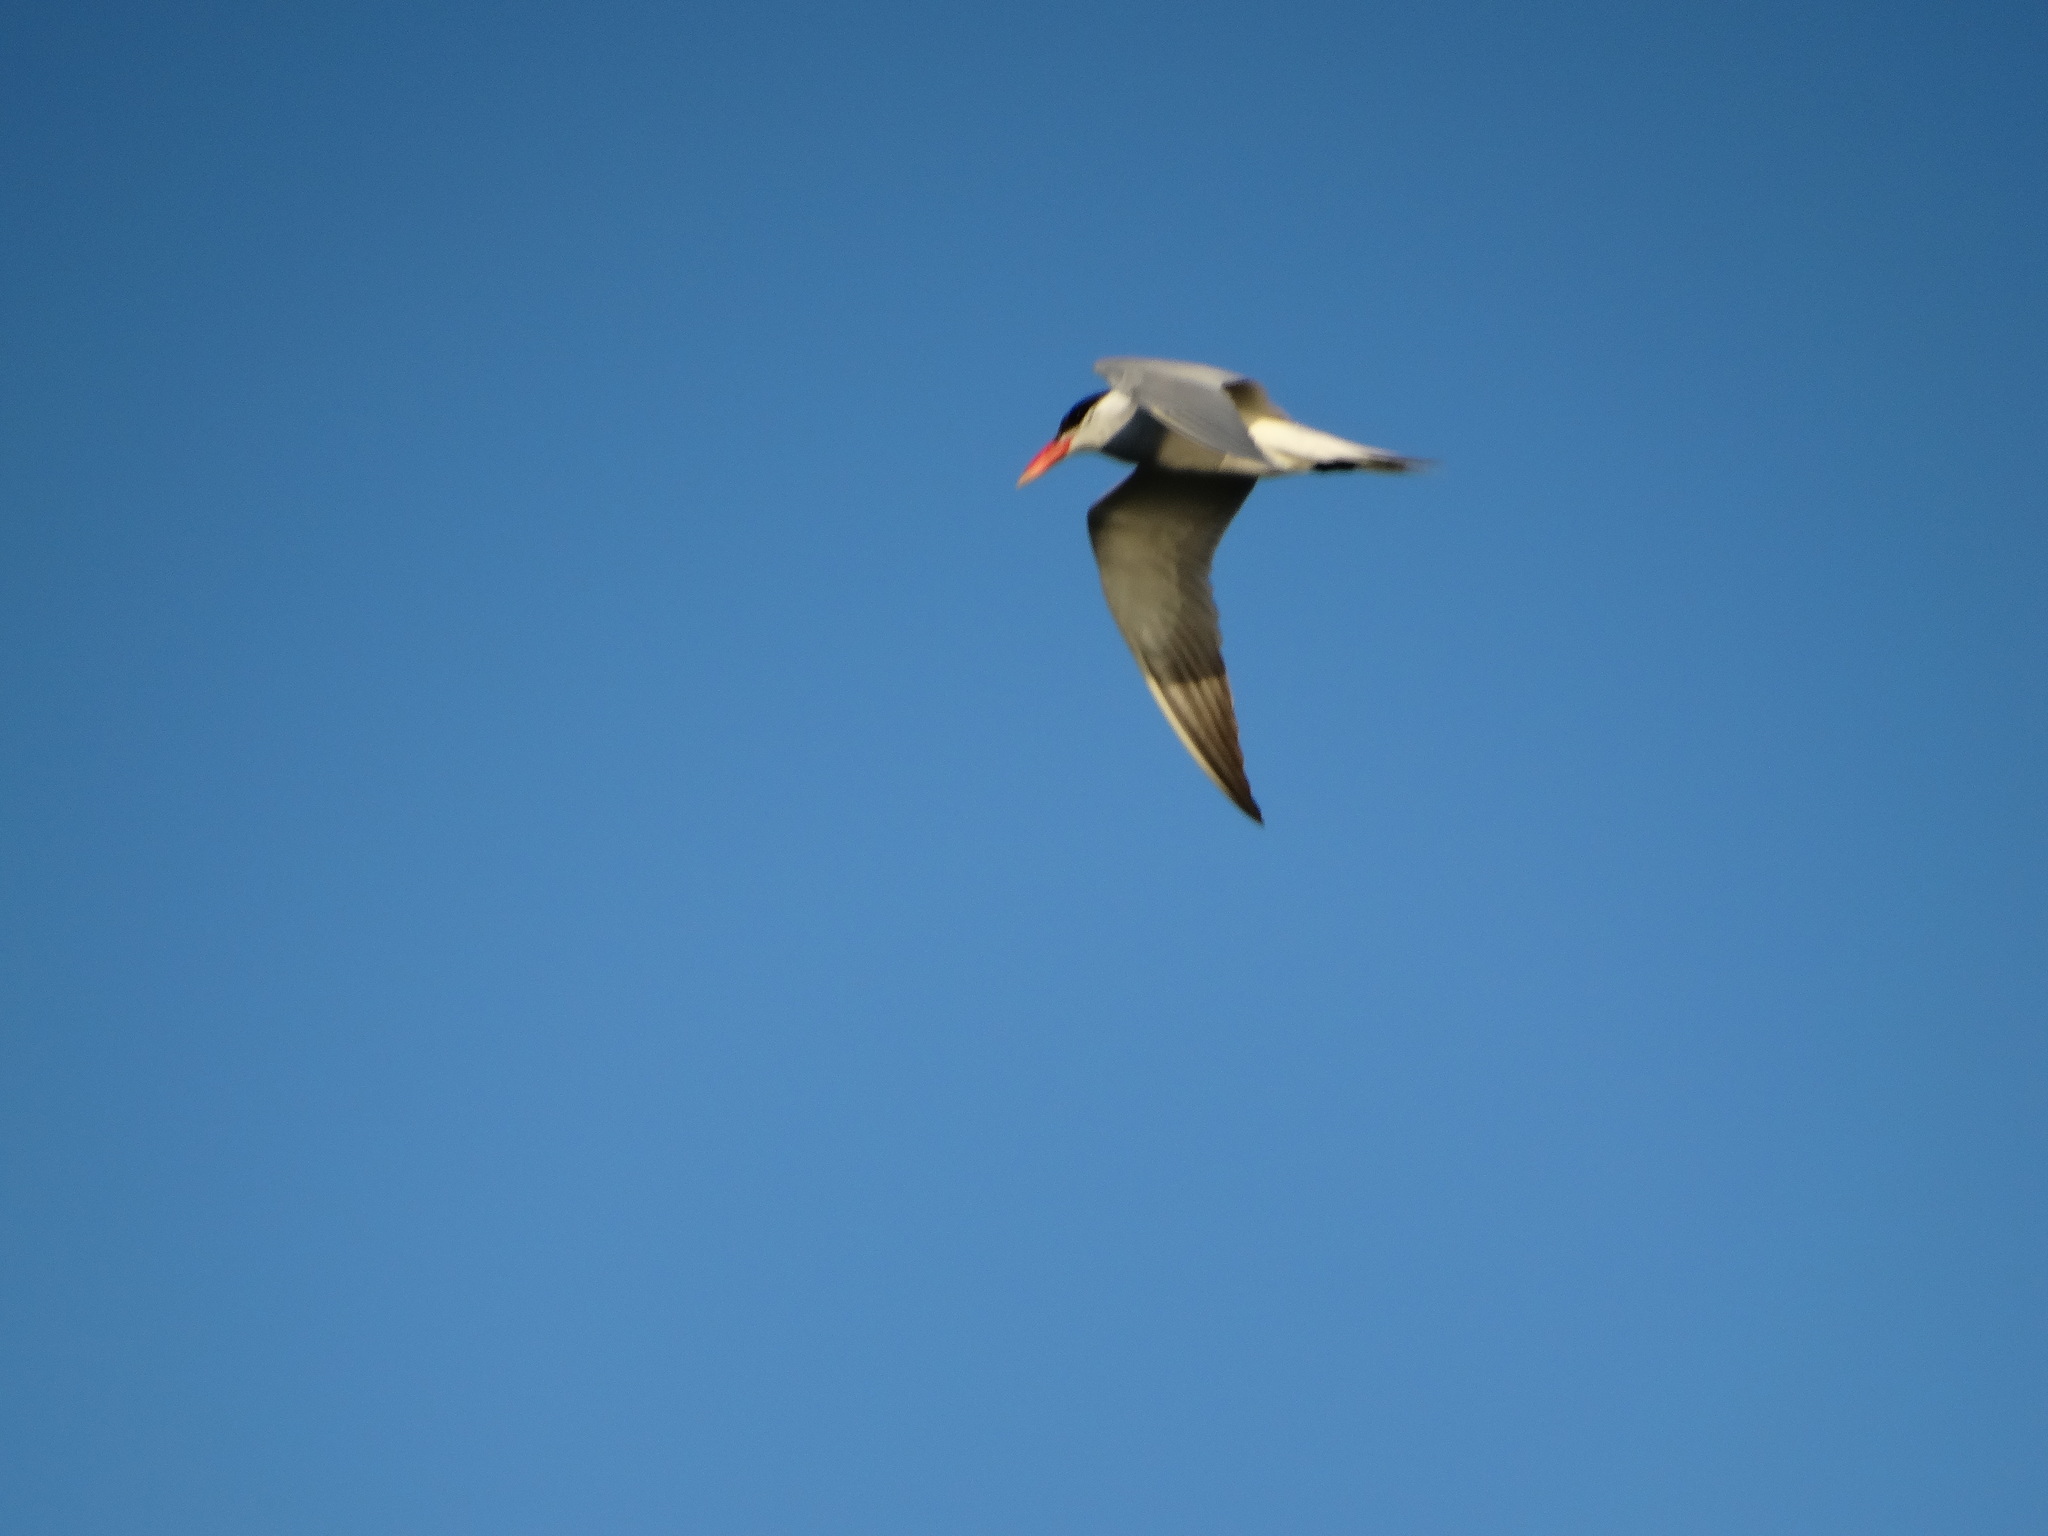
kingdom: Animalia
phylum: Chordata
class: Aves
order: Charadriiformes
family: Laridae
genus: Hydroprogne
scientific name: Hydroprogne caspia
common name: Caspian tern
